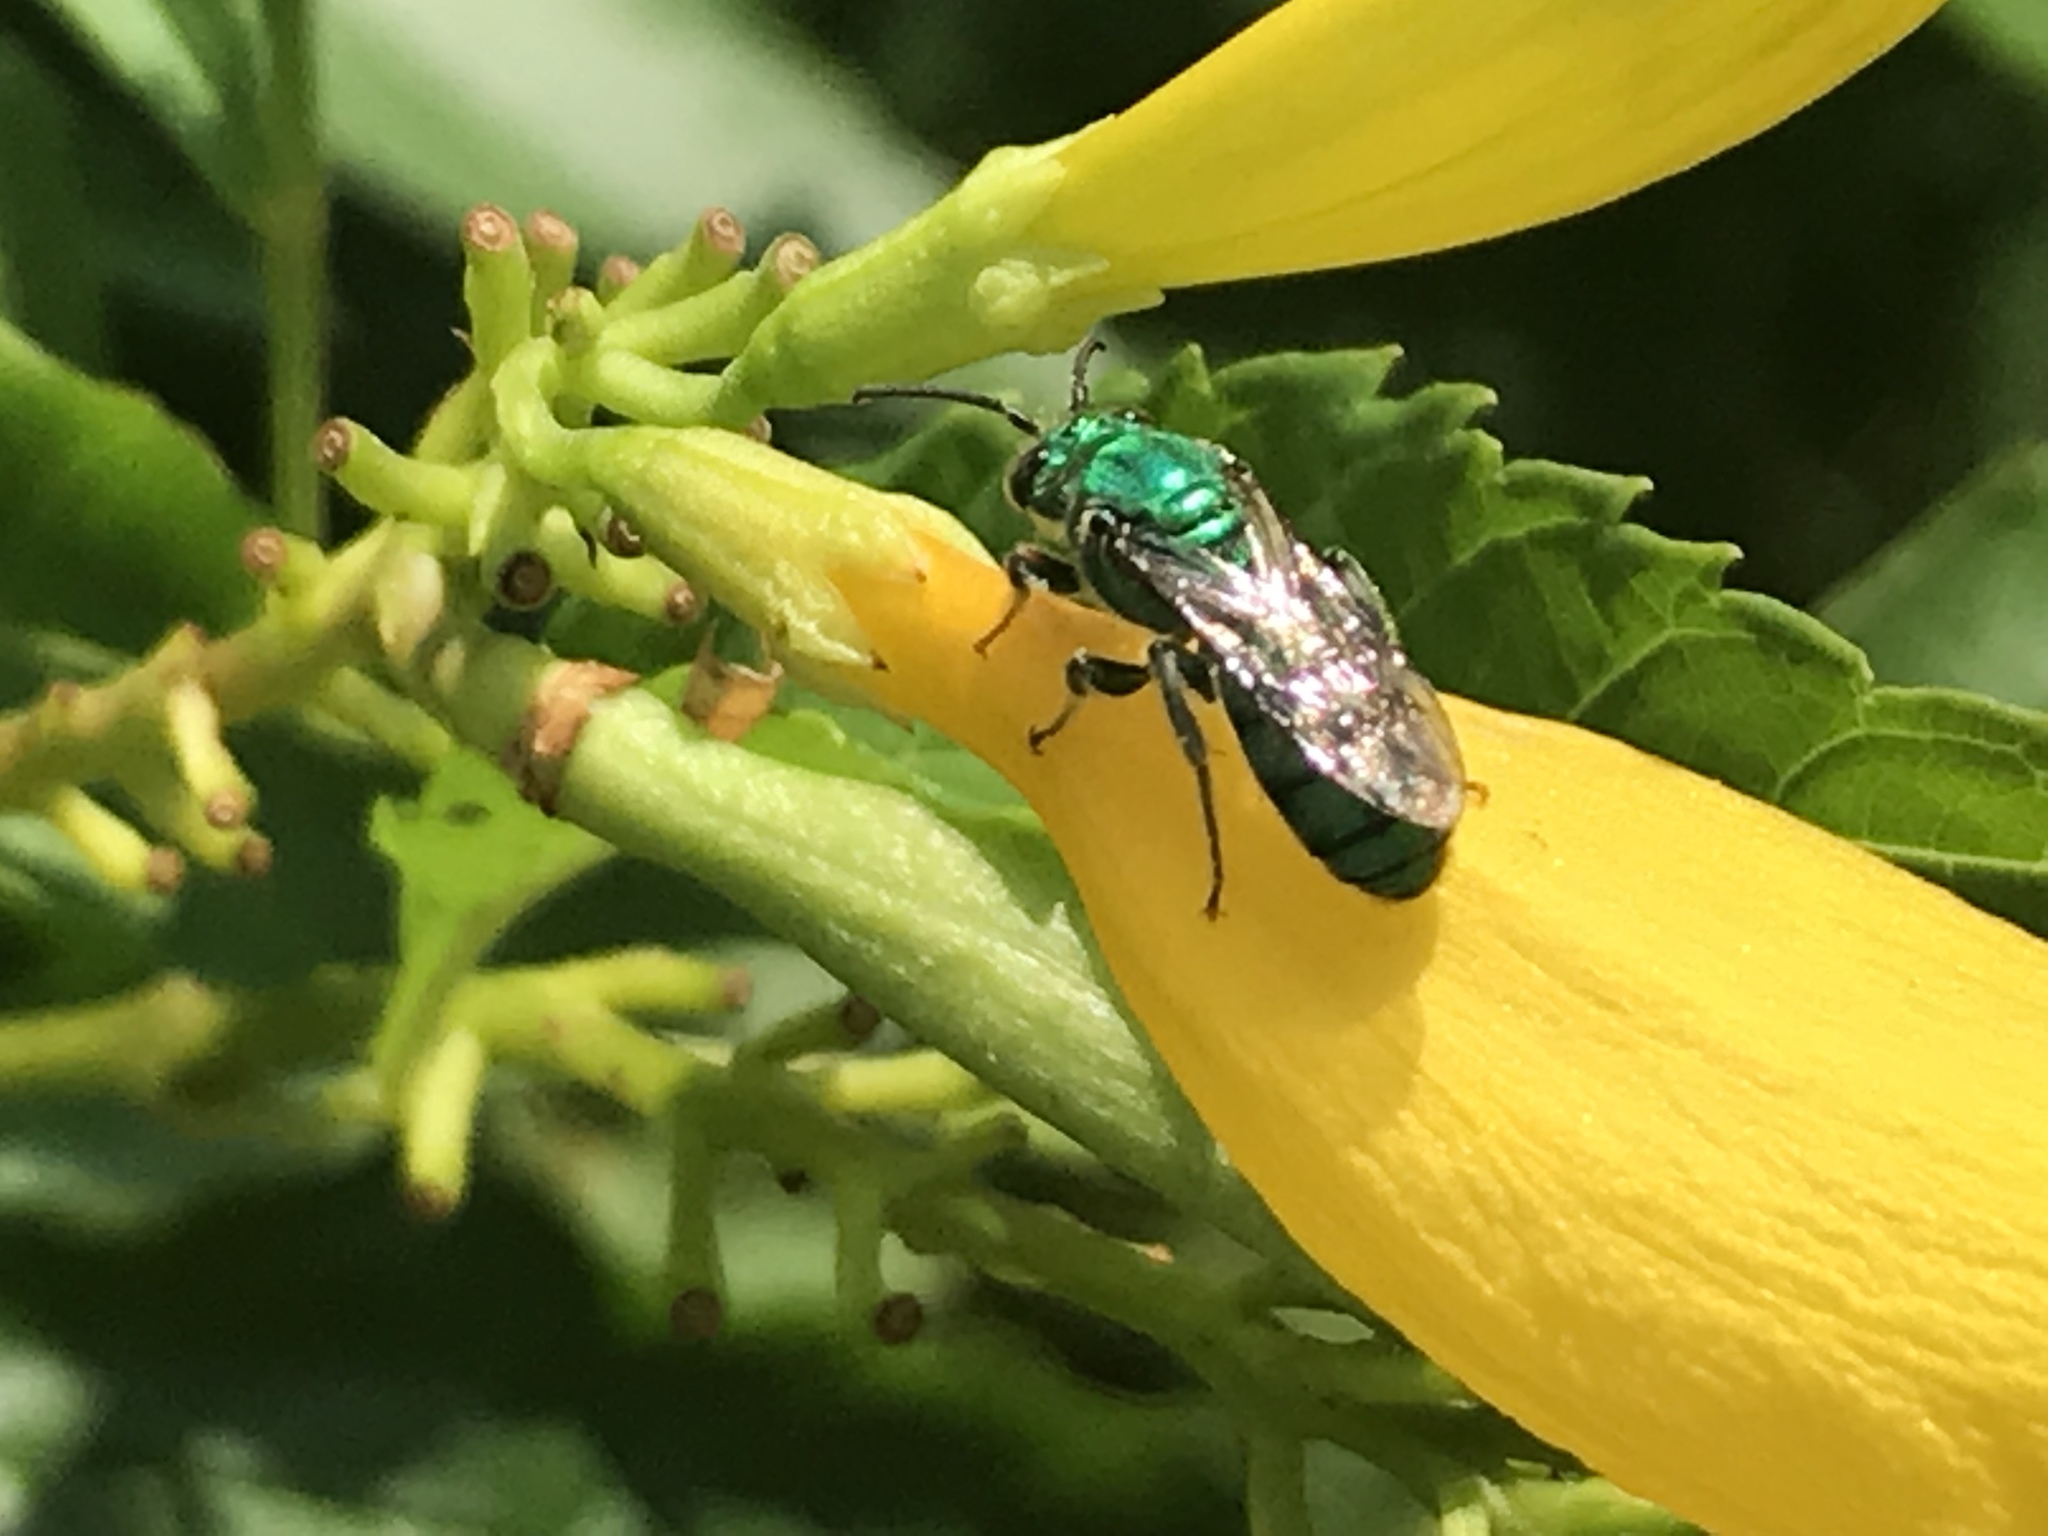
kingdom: Animalia
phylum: Arthropoda
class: Insecta
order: Hymenoptera
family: Halictidae
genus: Pseudaugochlora
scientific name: Pseudaugochlora graminea
